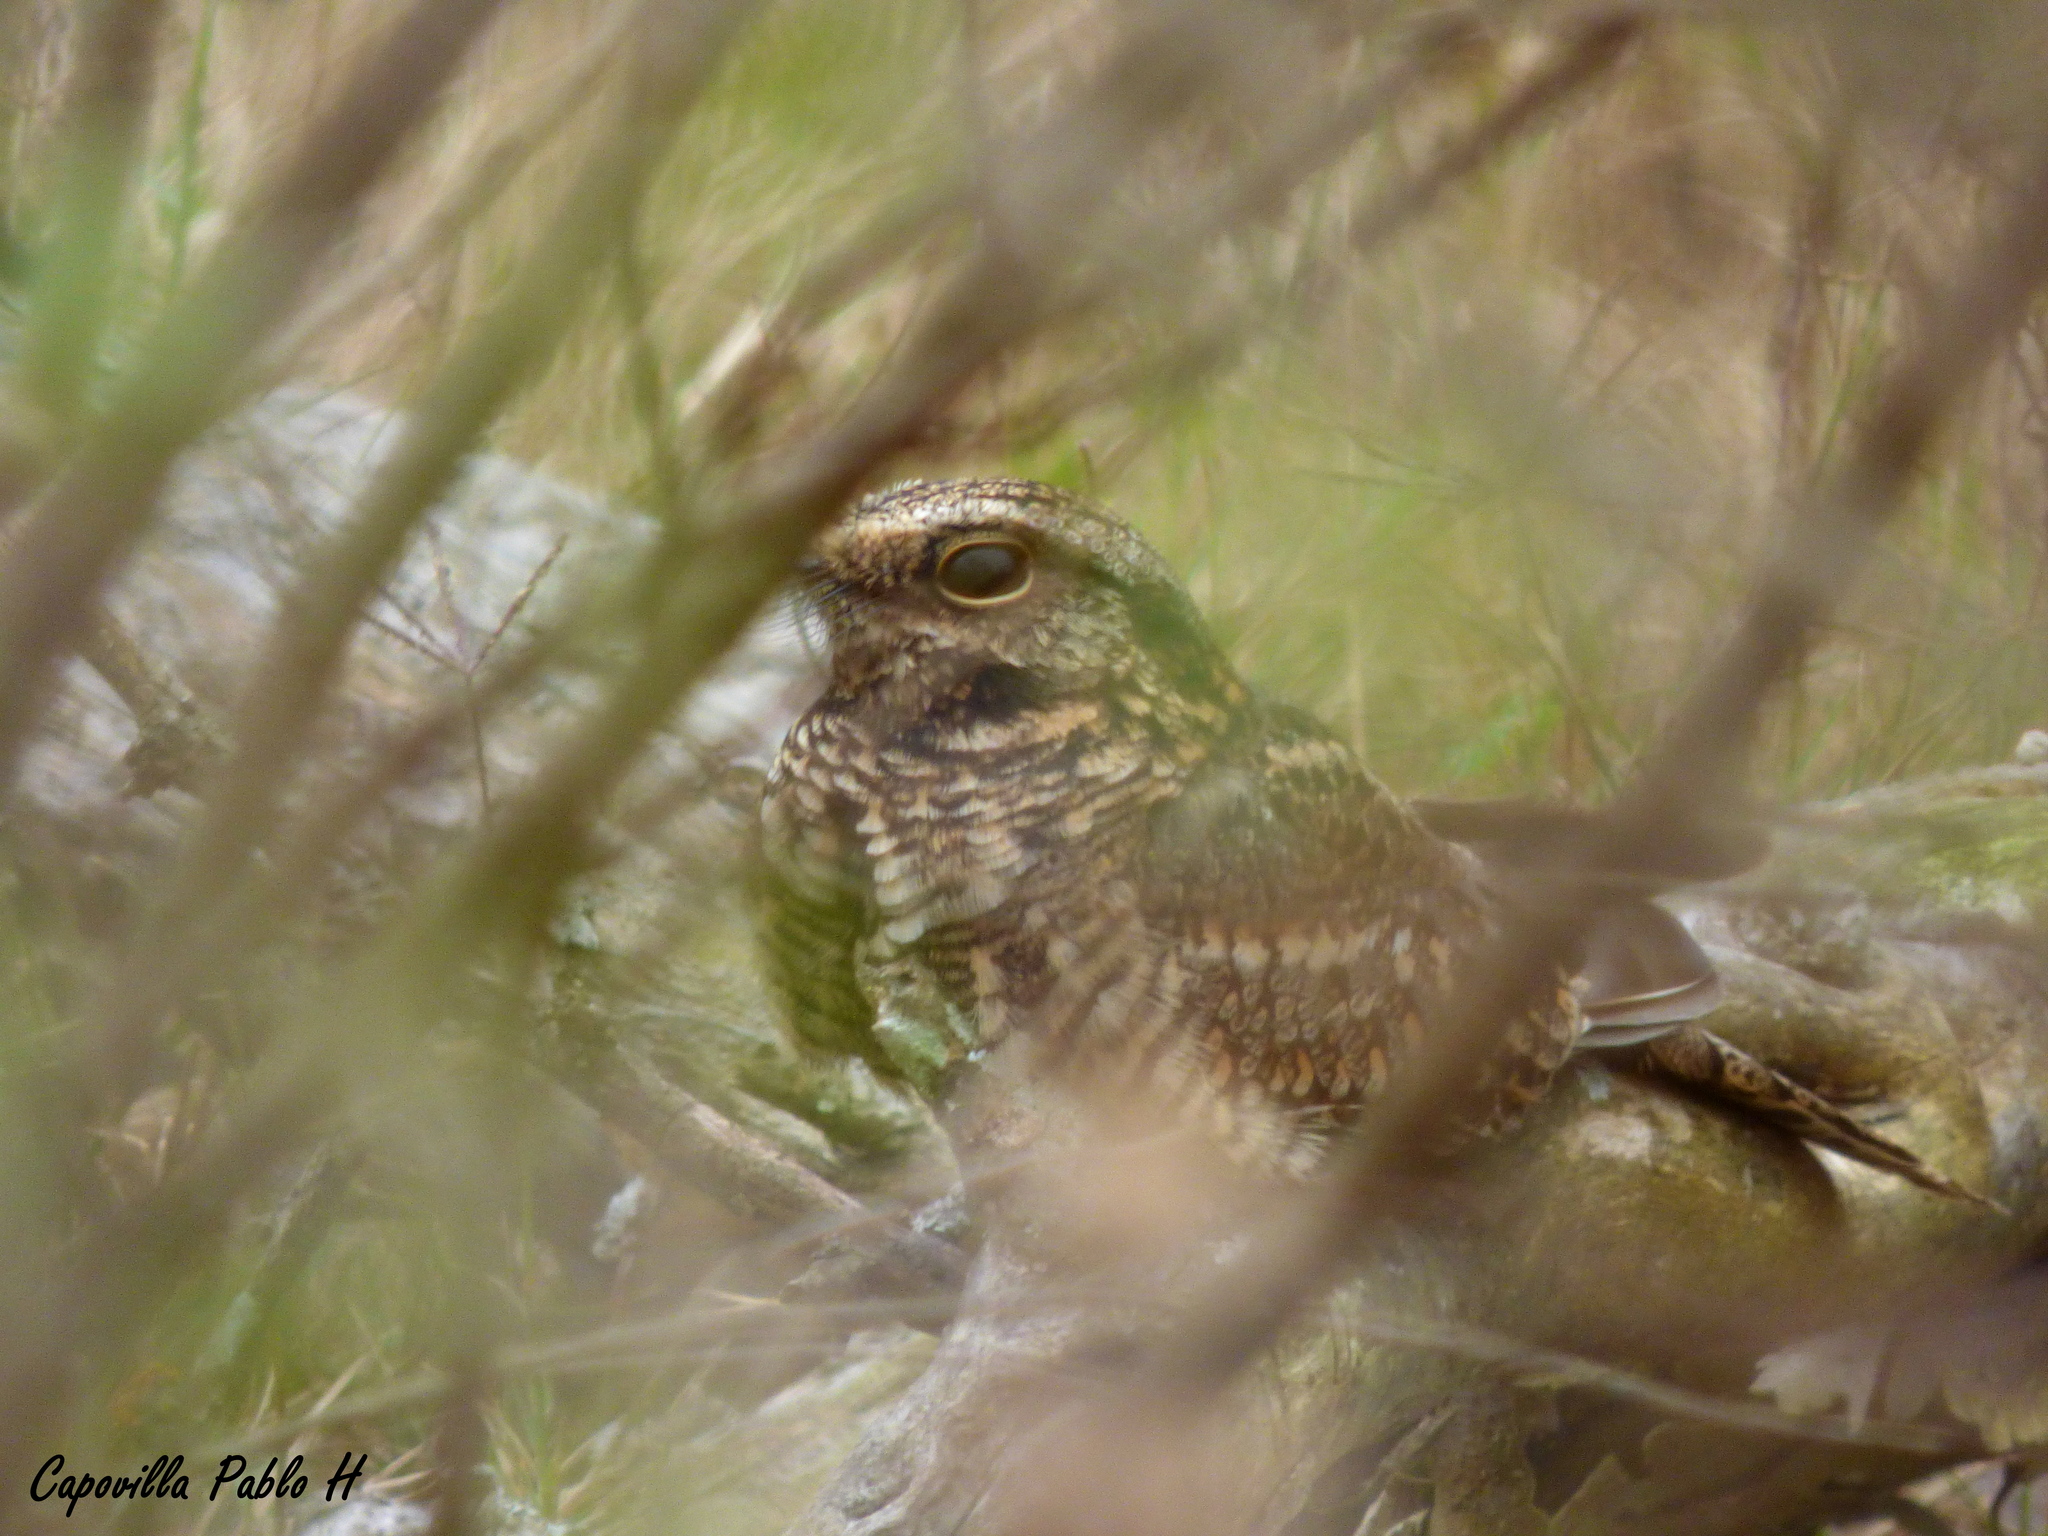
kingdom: Animalia
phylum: Chordata
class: Aves
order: Caprimulgiformes
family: Caprimulgidae
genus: Hydropsalis
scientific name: Hydropsalis torquata
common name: Scissor-tailed nightjar
